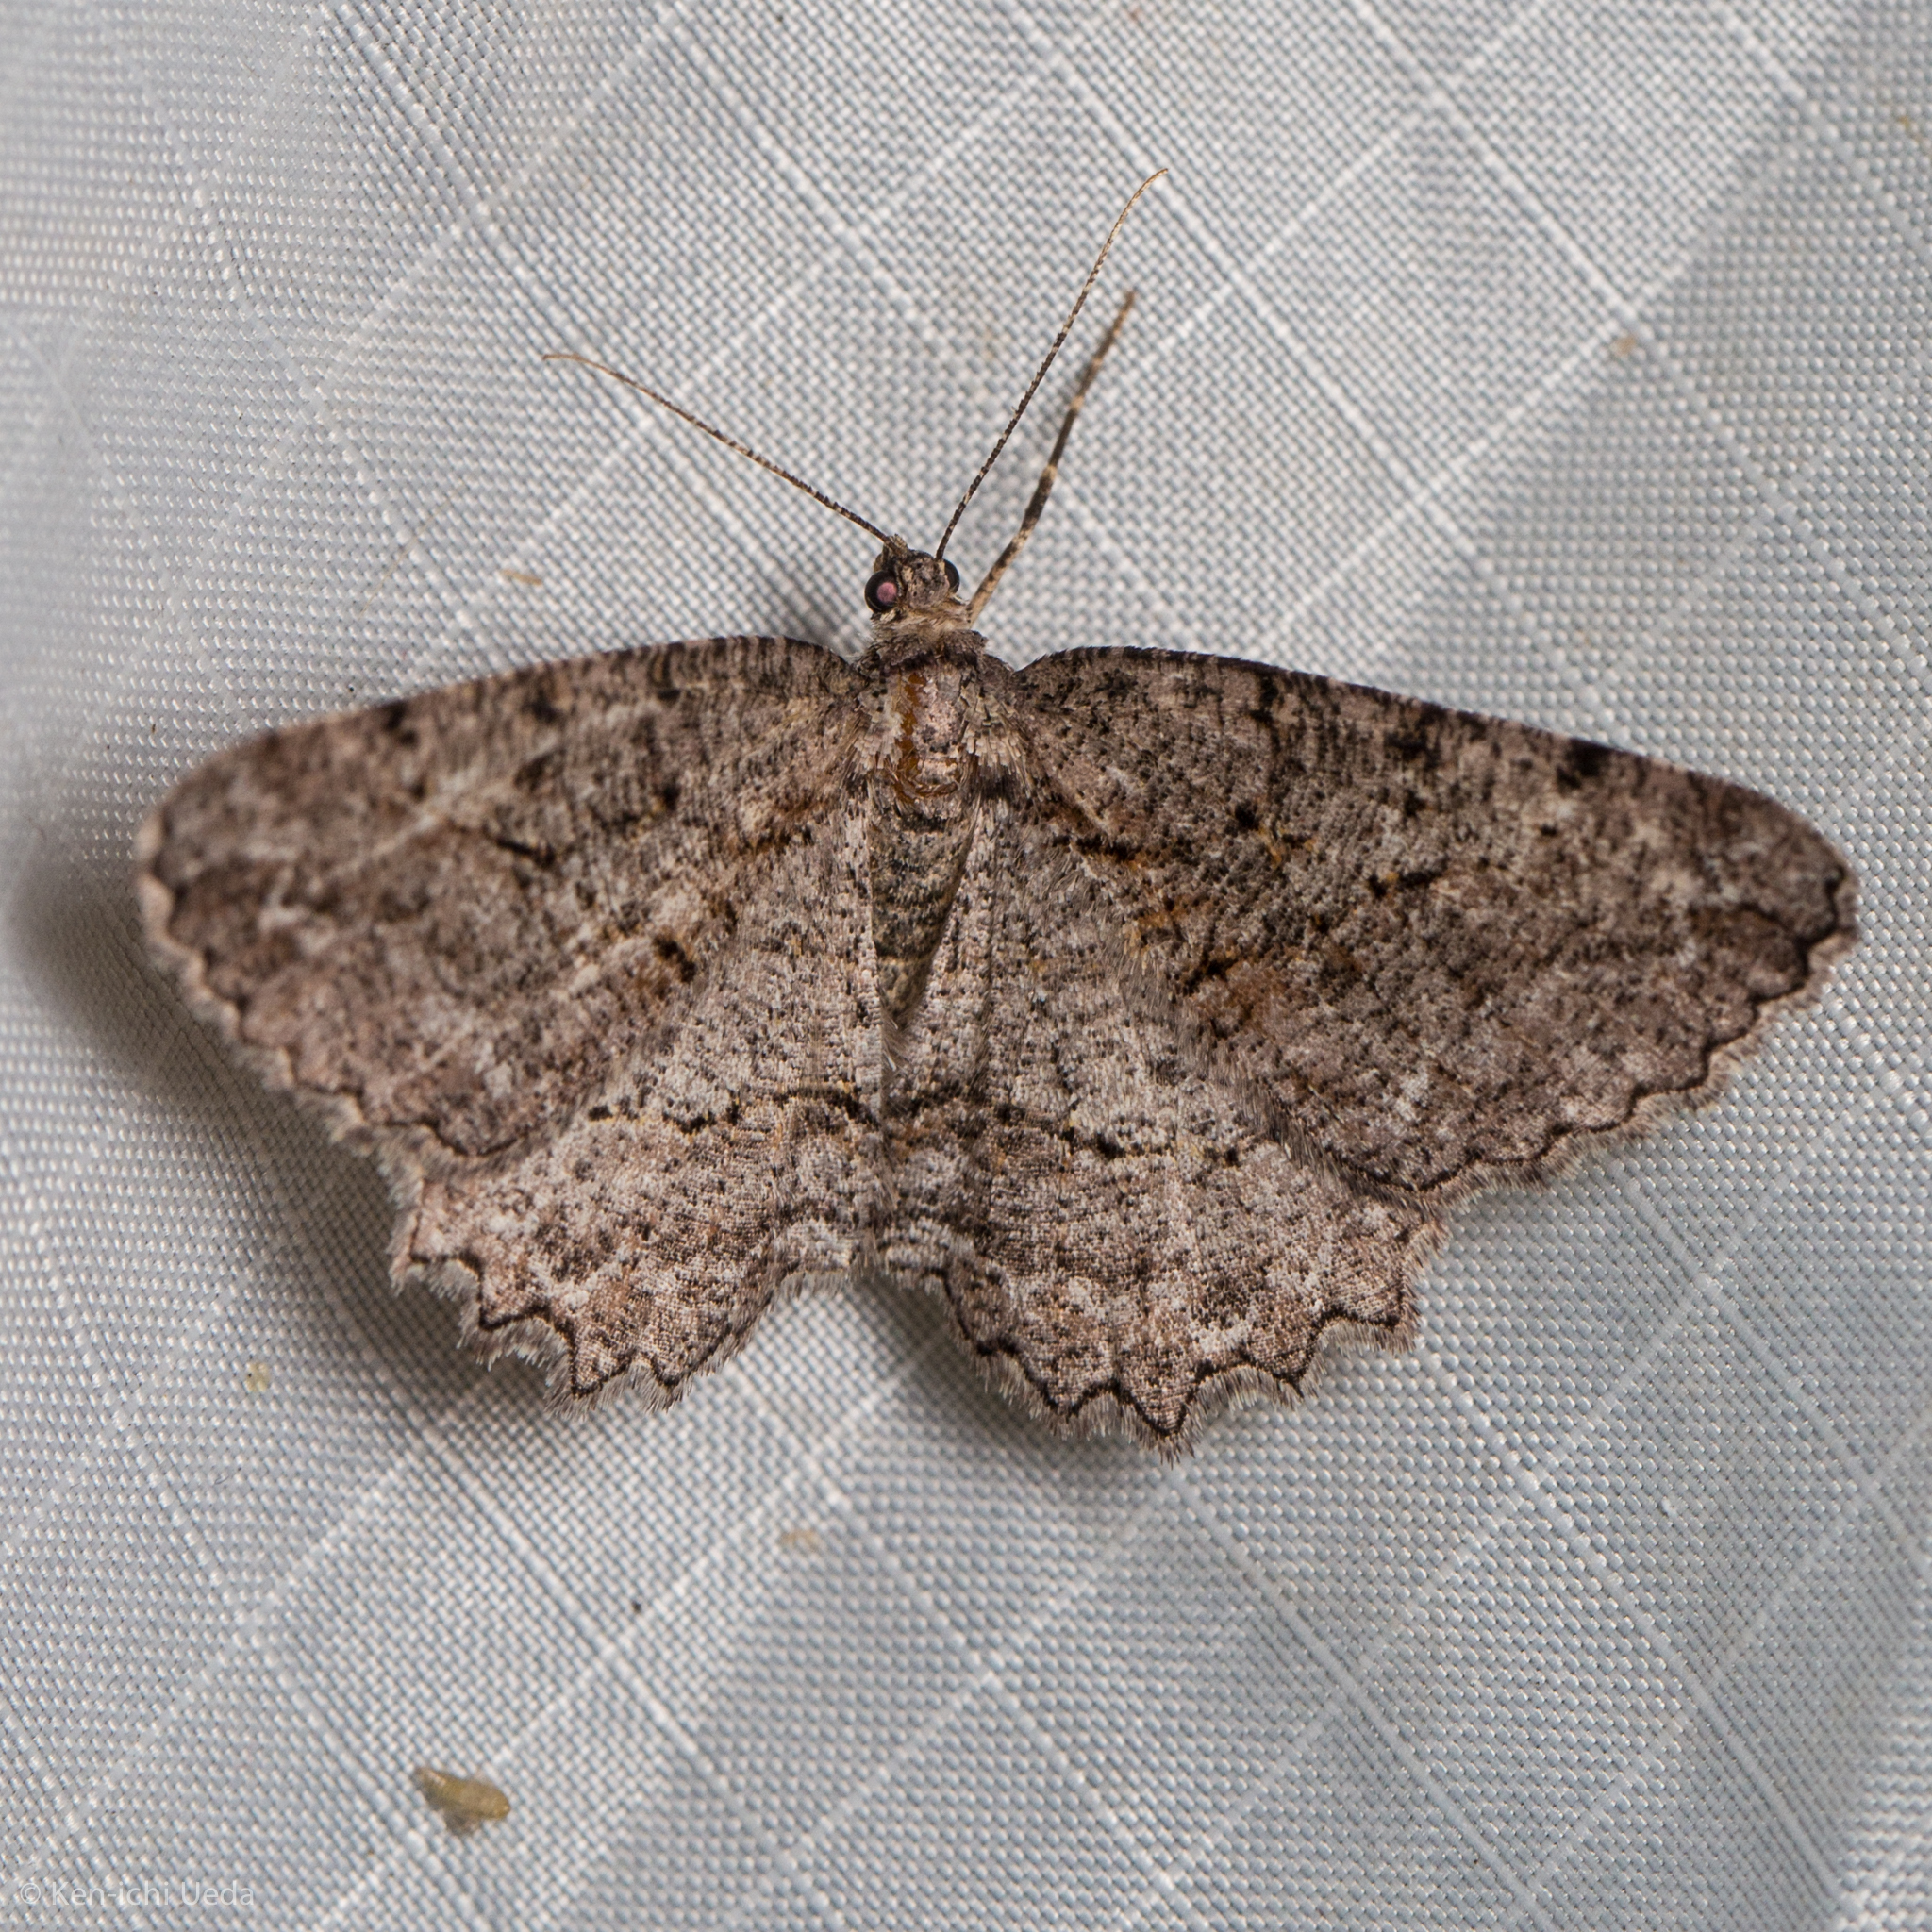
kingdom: Animalia
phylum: Arthropoda
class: Insecta
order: Lepidoptera
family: Geometridae
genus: Neoalcis
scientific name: Neoalcis californiaria
